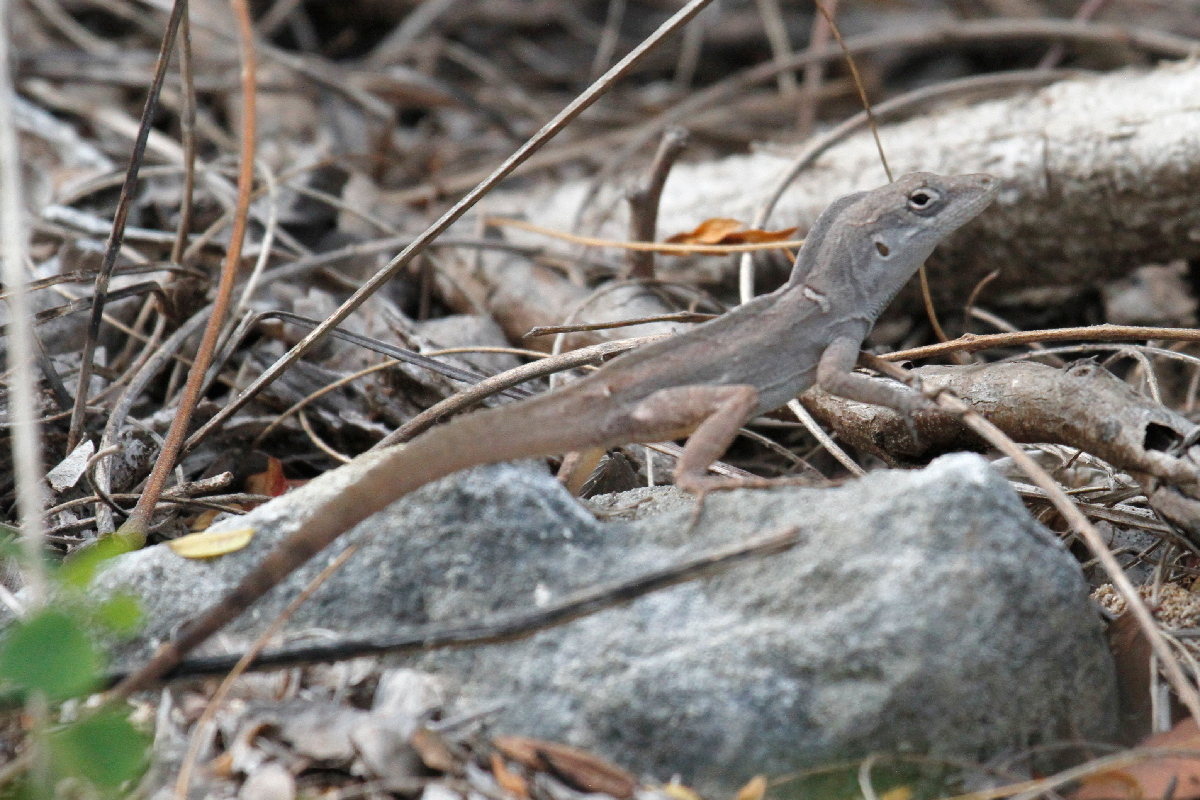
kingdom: Animalia
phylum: Chordata
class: Squamata
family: Dactyloidae
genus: Anolis
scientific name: Anolis sagrei
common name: Brown anole
